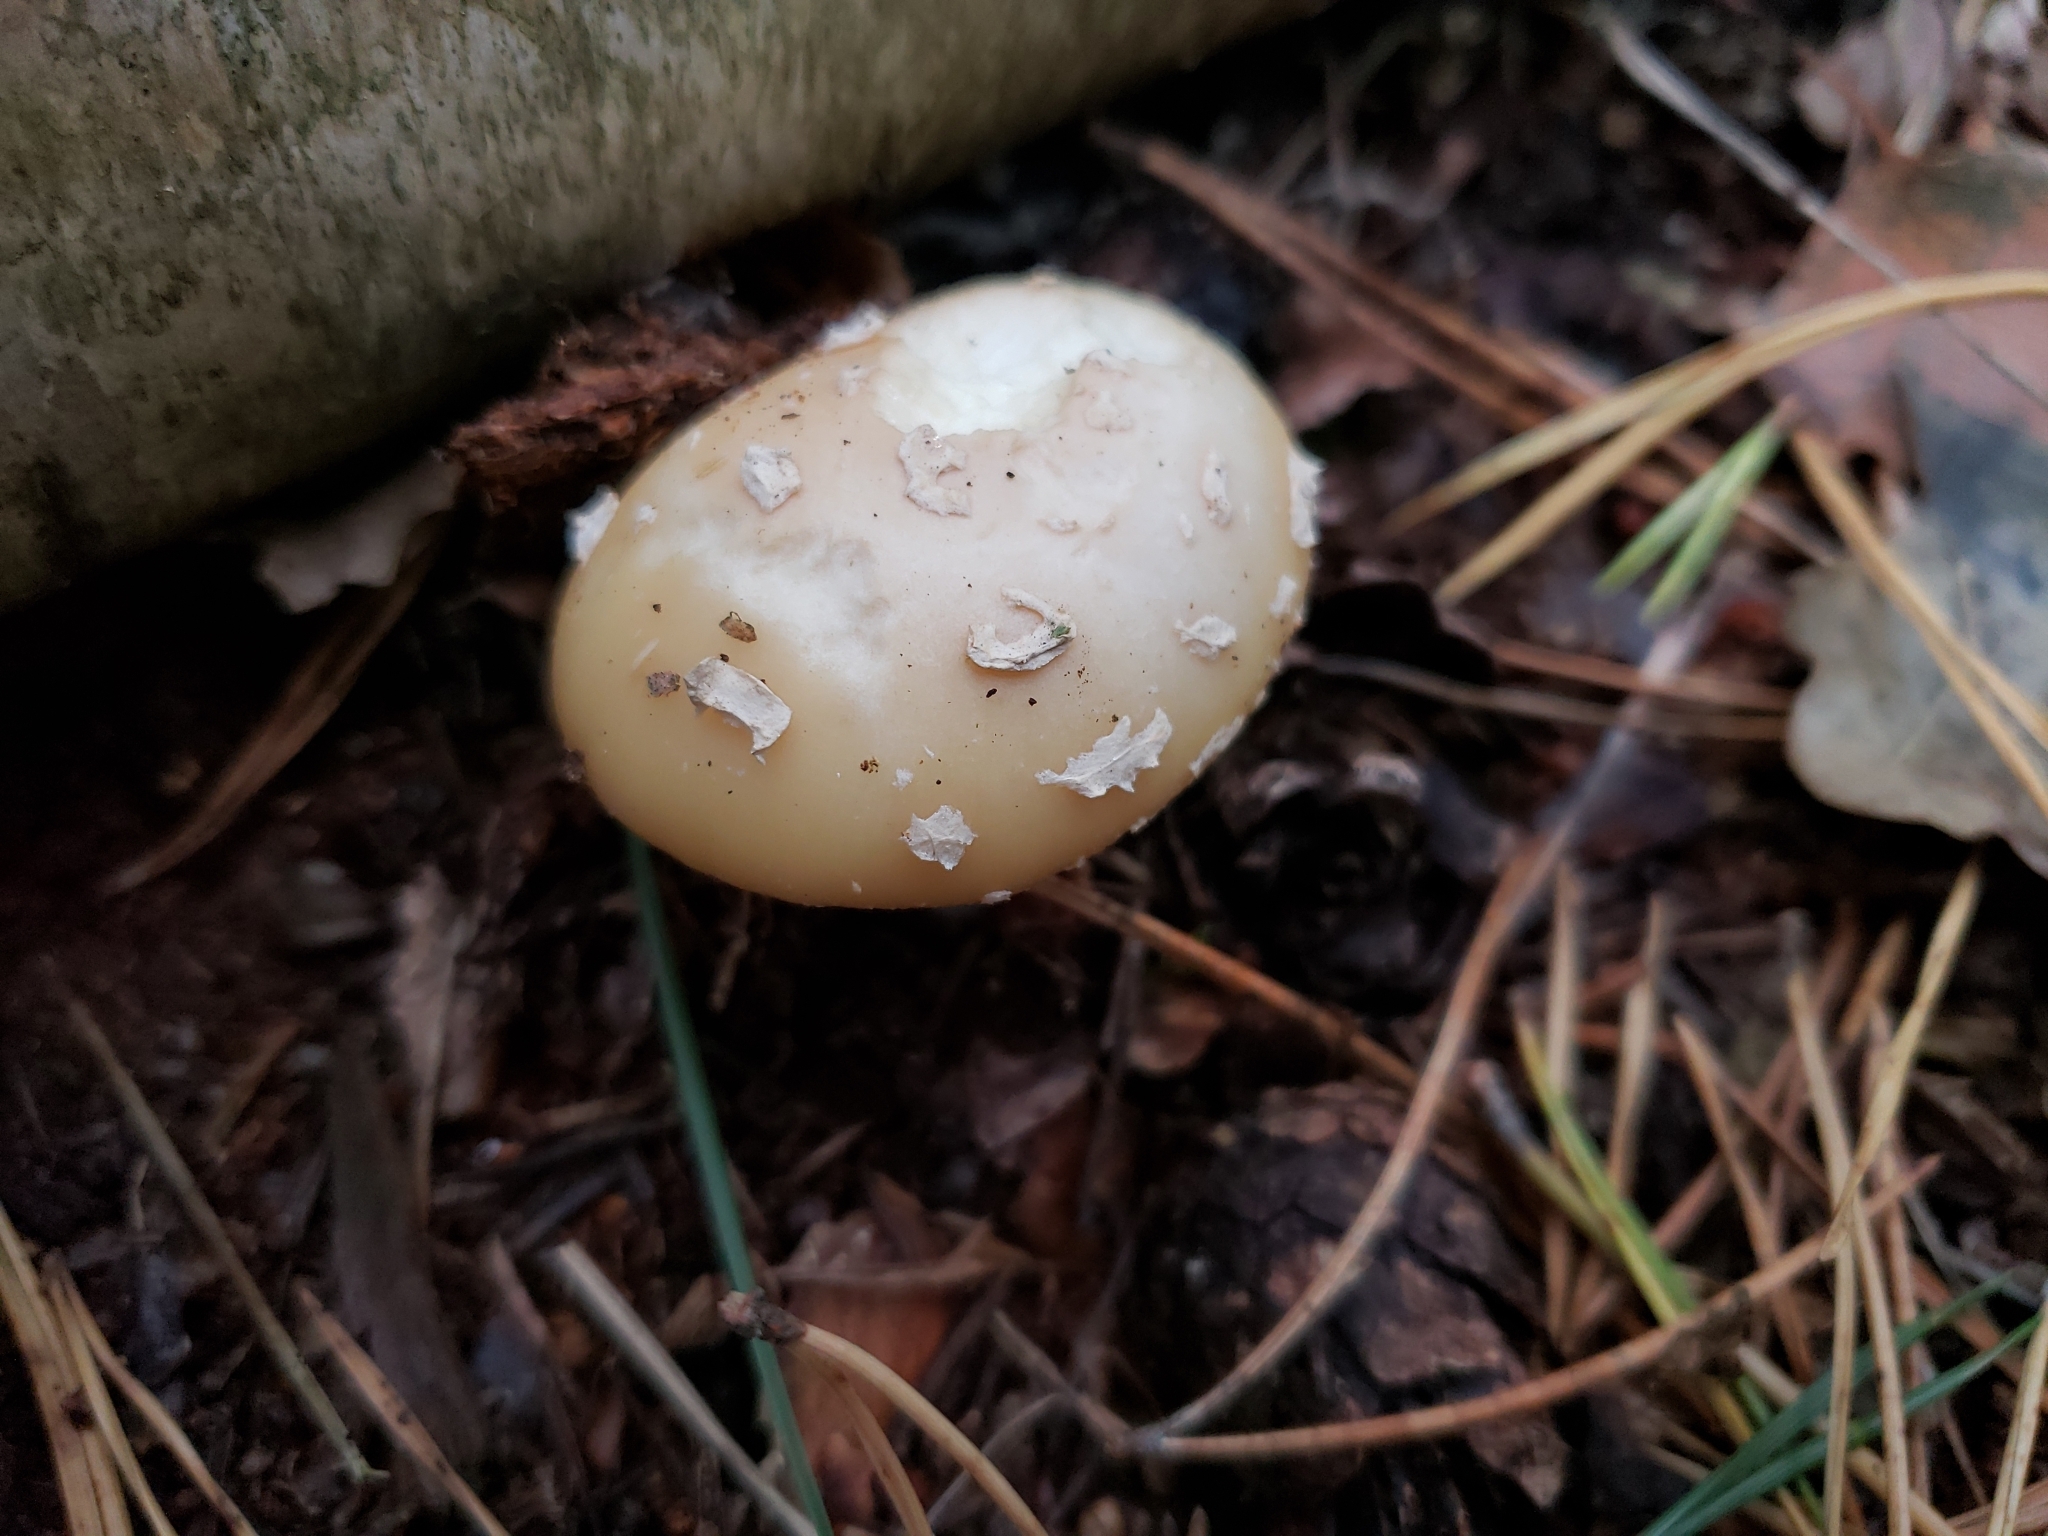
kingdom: Fungi
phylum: Basidiomycota
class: Agaricomycetes
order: Agaricales
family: Amanitaceae
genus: Amanita
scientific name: Amanita gemmata
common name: Jewelled amanita
